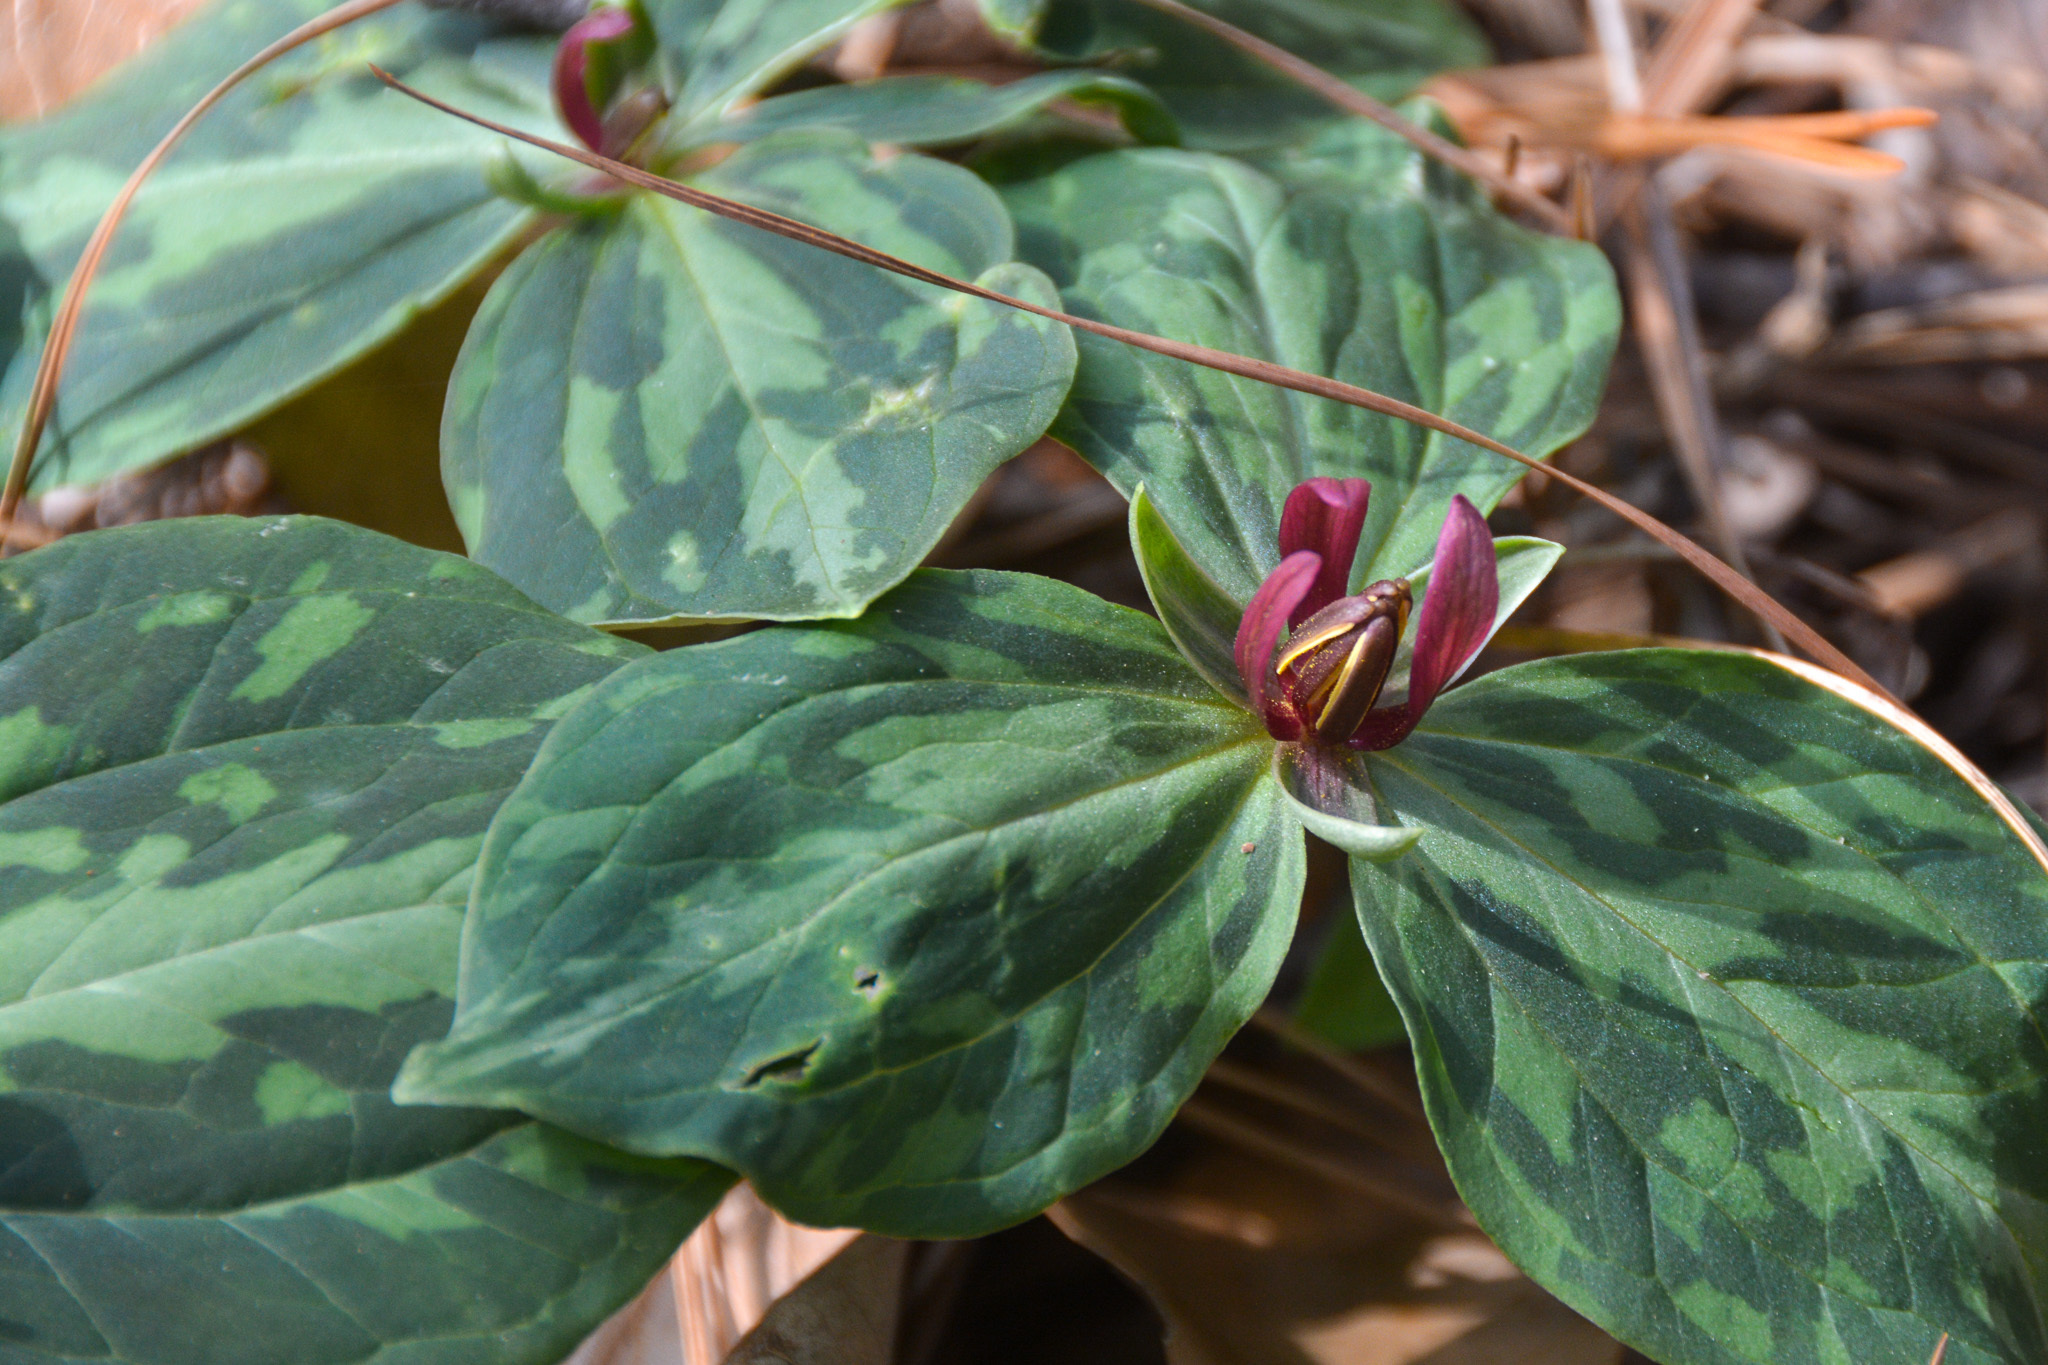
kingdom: Plantae
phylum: Tracheophyta
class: Liliopsida
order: Liliales
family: Melanthiaceae
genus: Trillium
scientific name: Trillium foetidissimum
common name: Mississippi river trillium
